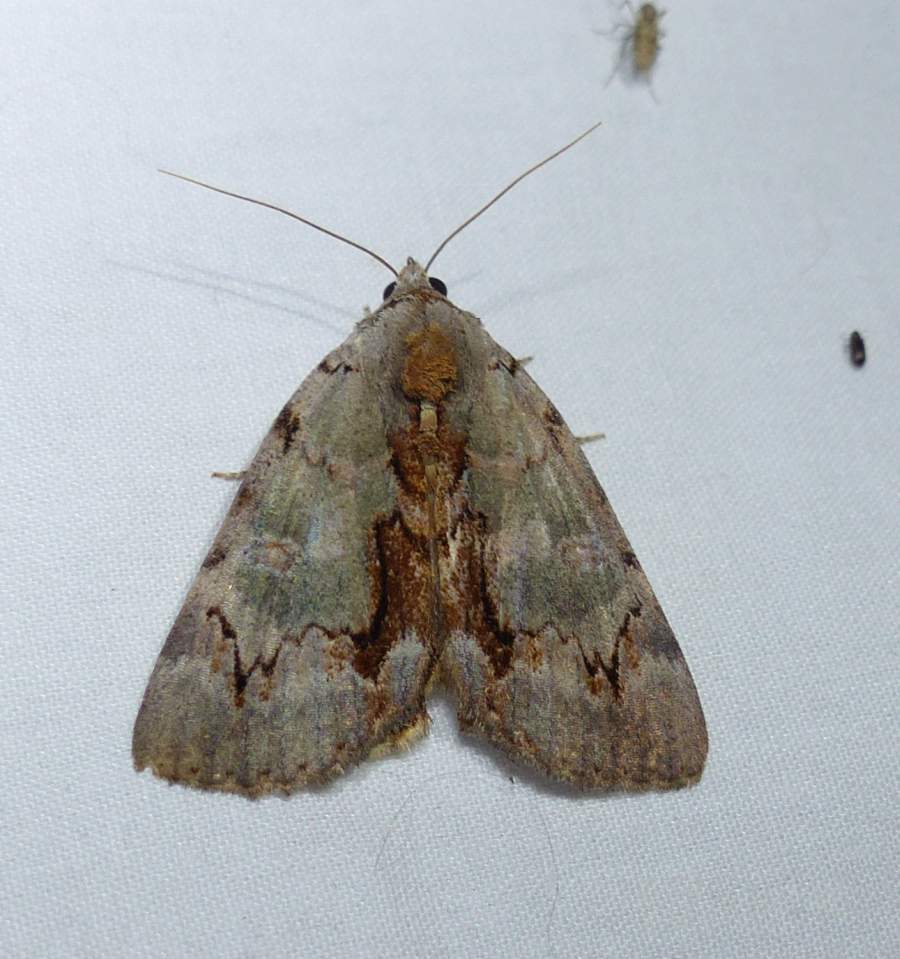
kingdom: Animalia
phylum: Arthropoda
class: Insecta
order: Lepidoptera
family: Erebidae
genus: Catocala
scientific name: Catocala grynea
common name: Woody underwing
